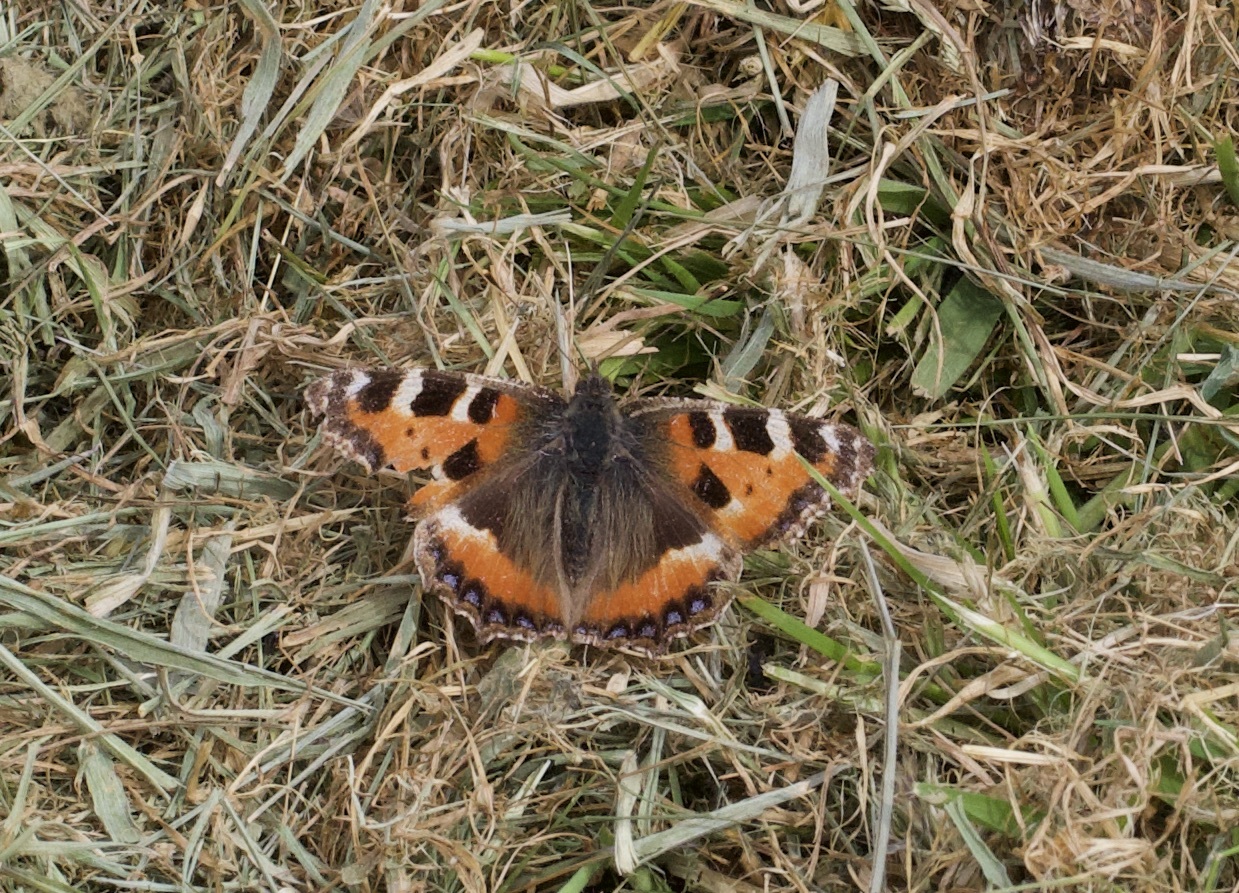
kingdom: Animalia
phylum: Arthropoda
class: Insecta
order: Lepidoptera
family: Nymphalidae
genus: Aglais
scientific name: Aglais urticae
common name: Small tortoiseshell
